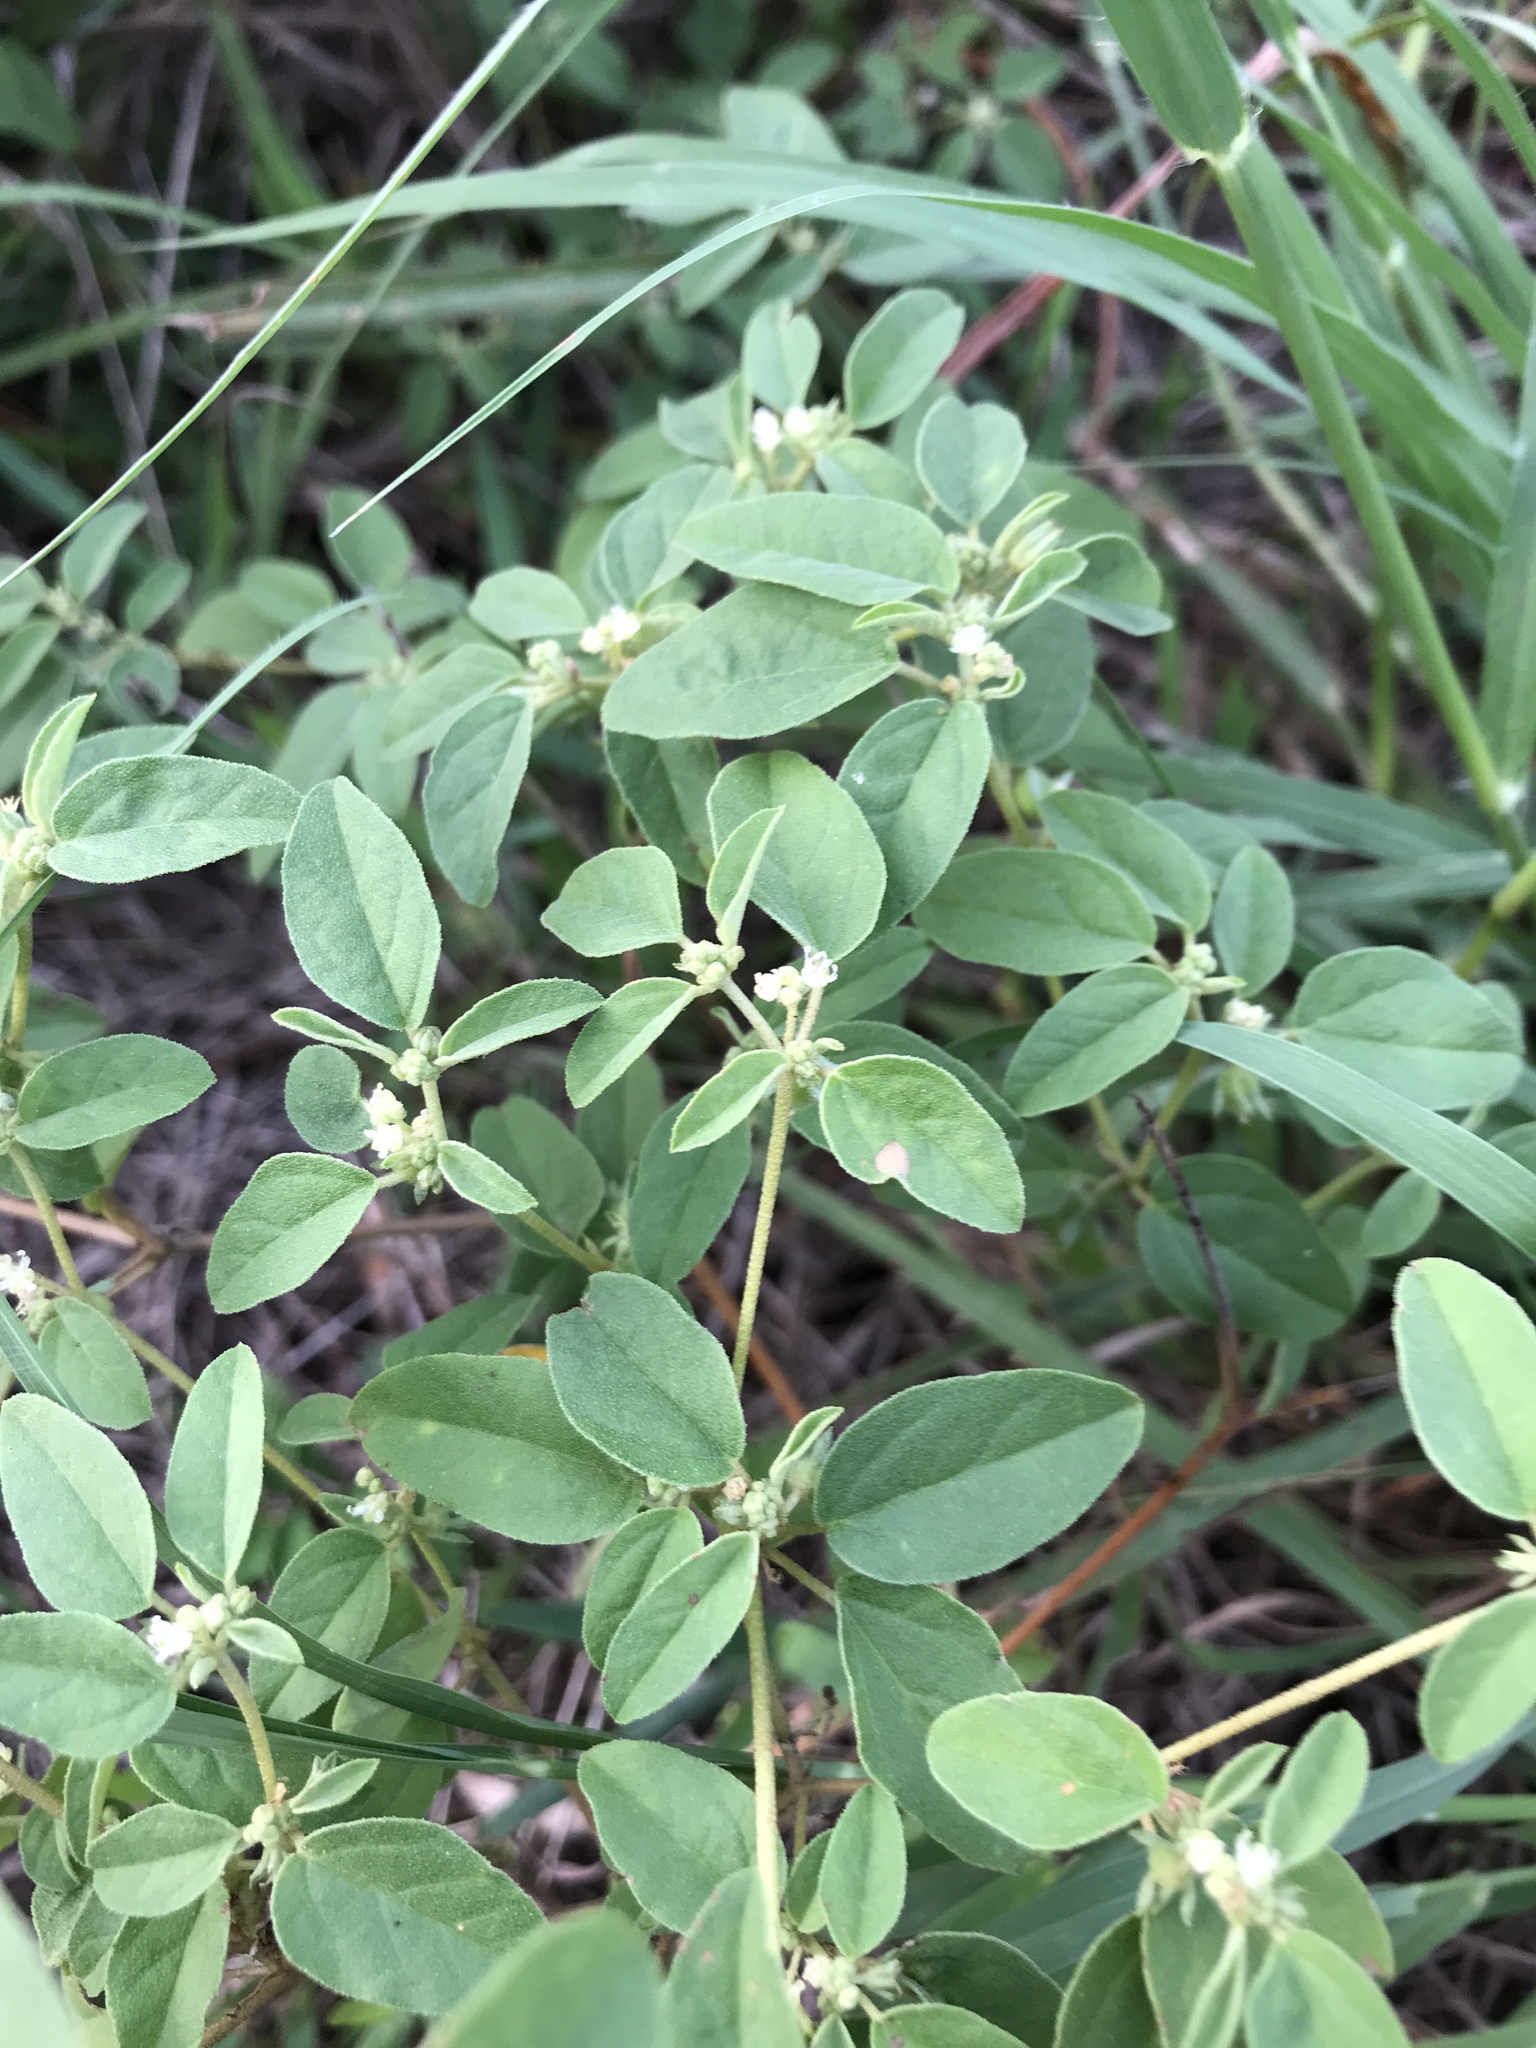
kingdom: Plantae
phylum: Tracheophyta
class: Magnoliopsida
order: Malpighiales
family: Euphorbiaceae
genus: Croton
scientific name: Croton monanthogynus
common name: One-seed croton
